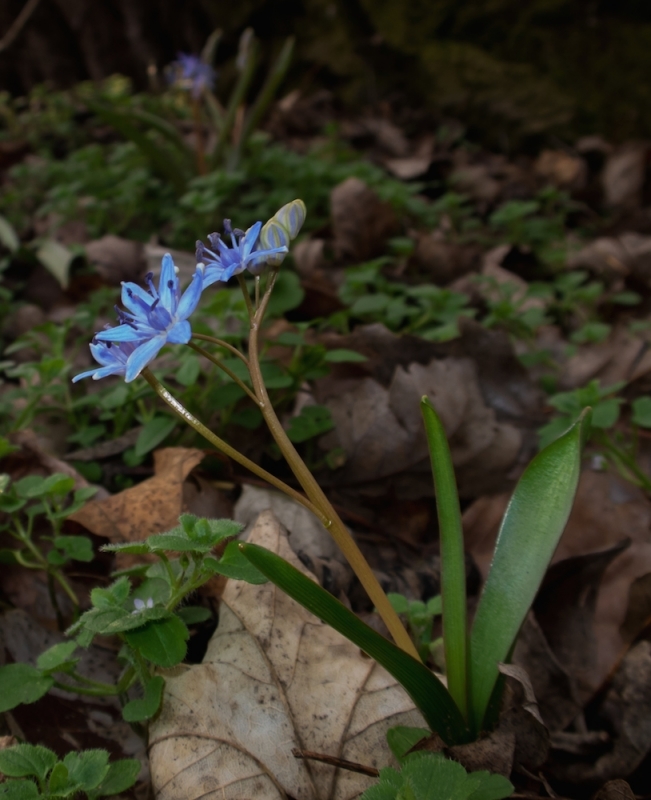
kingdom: Plantae
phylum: Tracheophyta
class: Liliopsida
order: Asparagales
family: Asparagaceae
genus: Scilla
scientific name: Scilla vindobonensis
